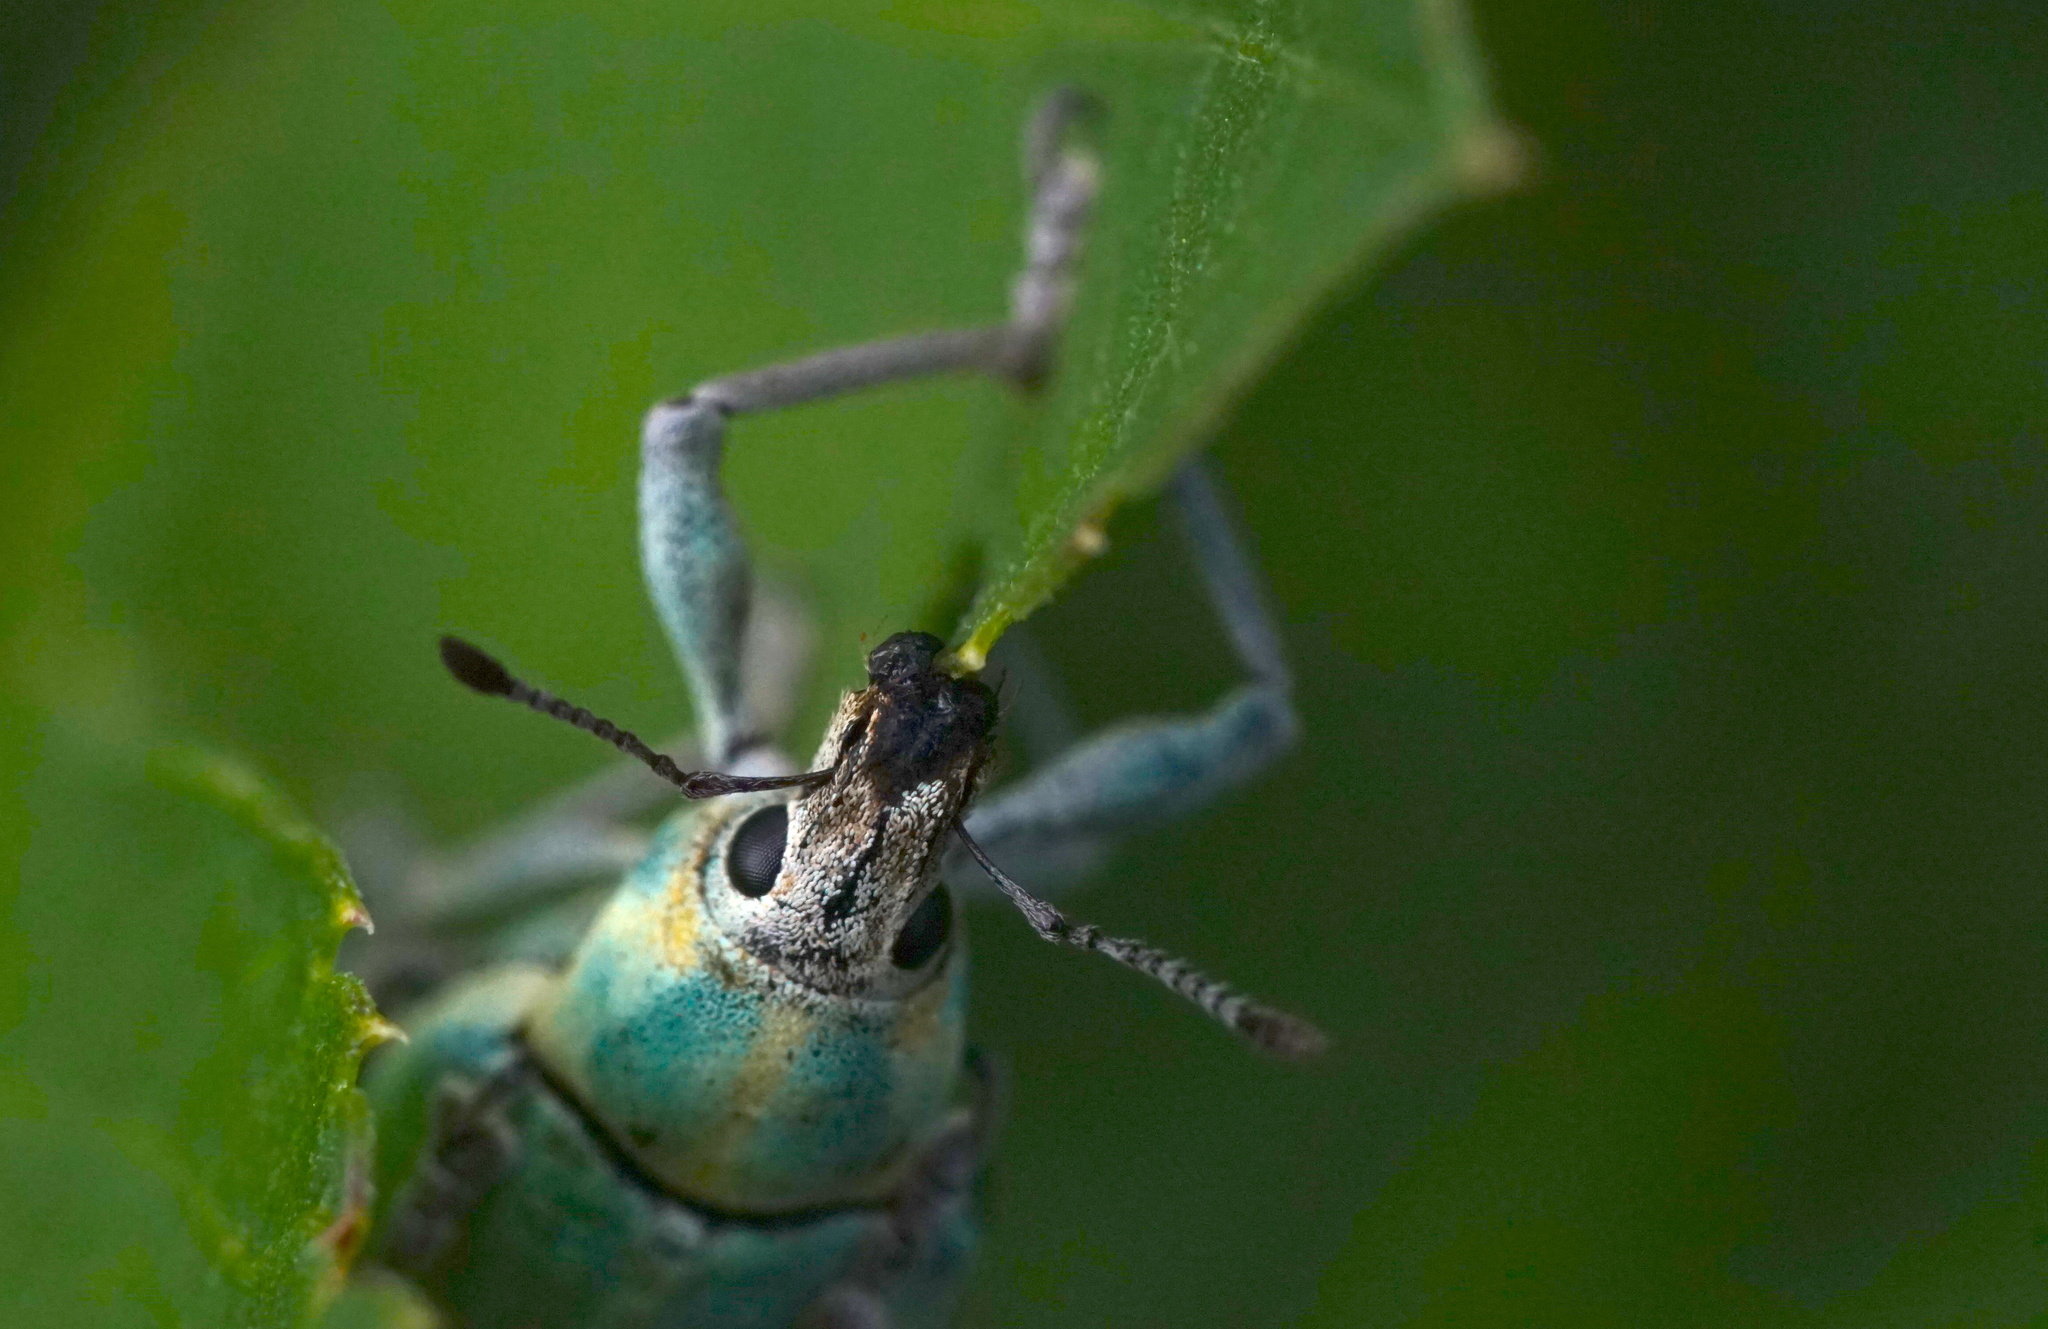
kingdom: Animalia
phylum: Arthropoda
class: Insecta
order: Coleoptera
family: Curculionidae
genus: Pachnaeus
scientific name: Pachnaeus litus
